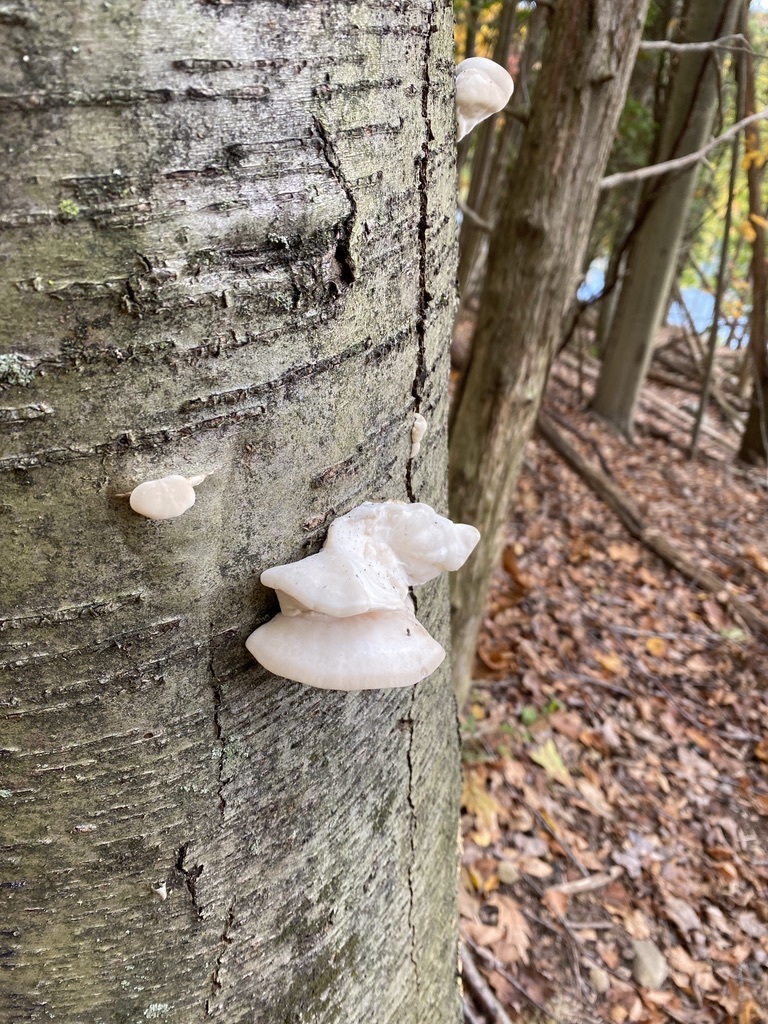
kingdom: Fungi
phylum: Basidiomycota
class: Agaricomycetes
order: Polyporales
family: Incrustoporiaceae
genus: Tyromyces
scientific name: Tyromyces chioneus
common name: White cheese polypore
